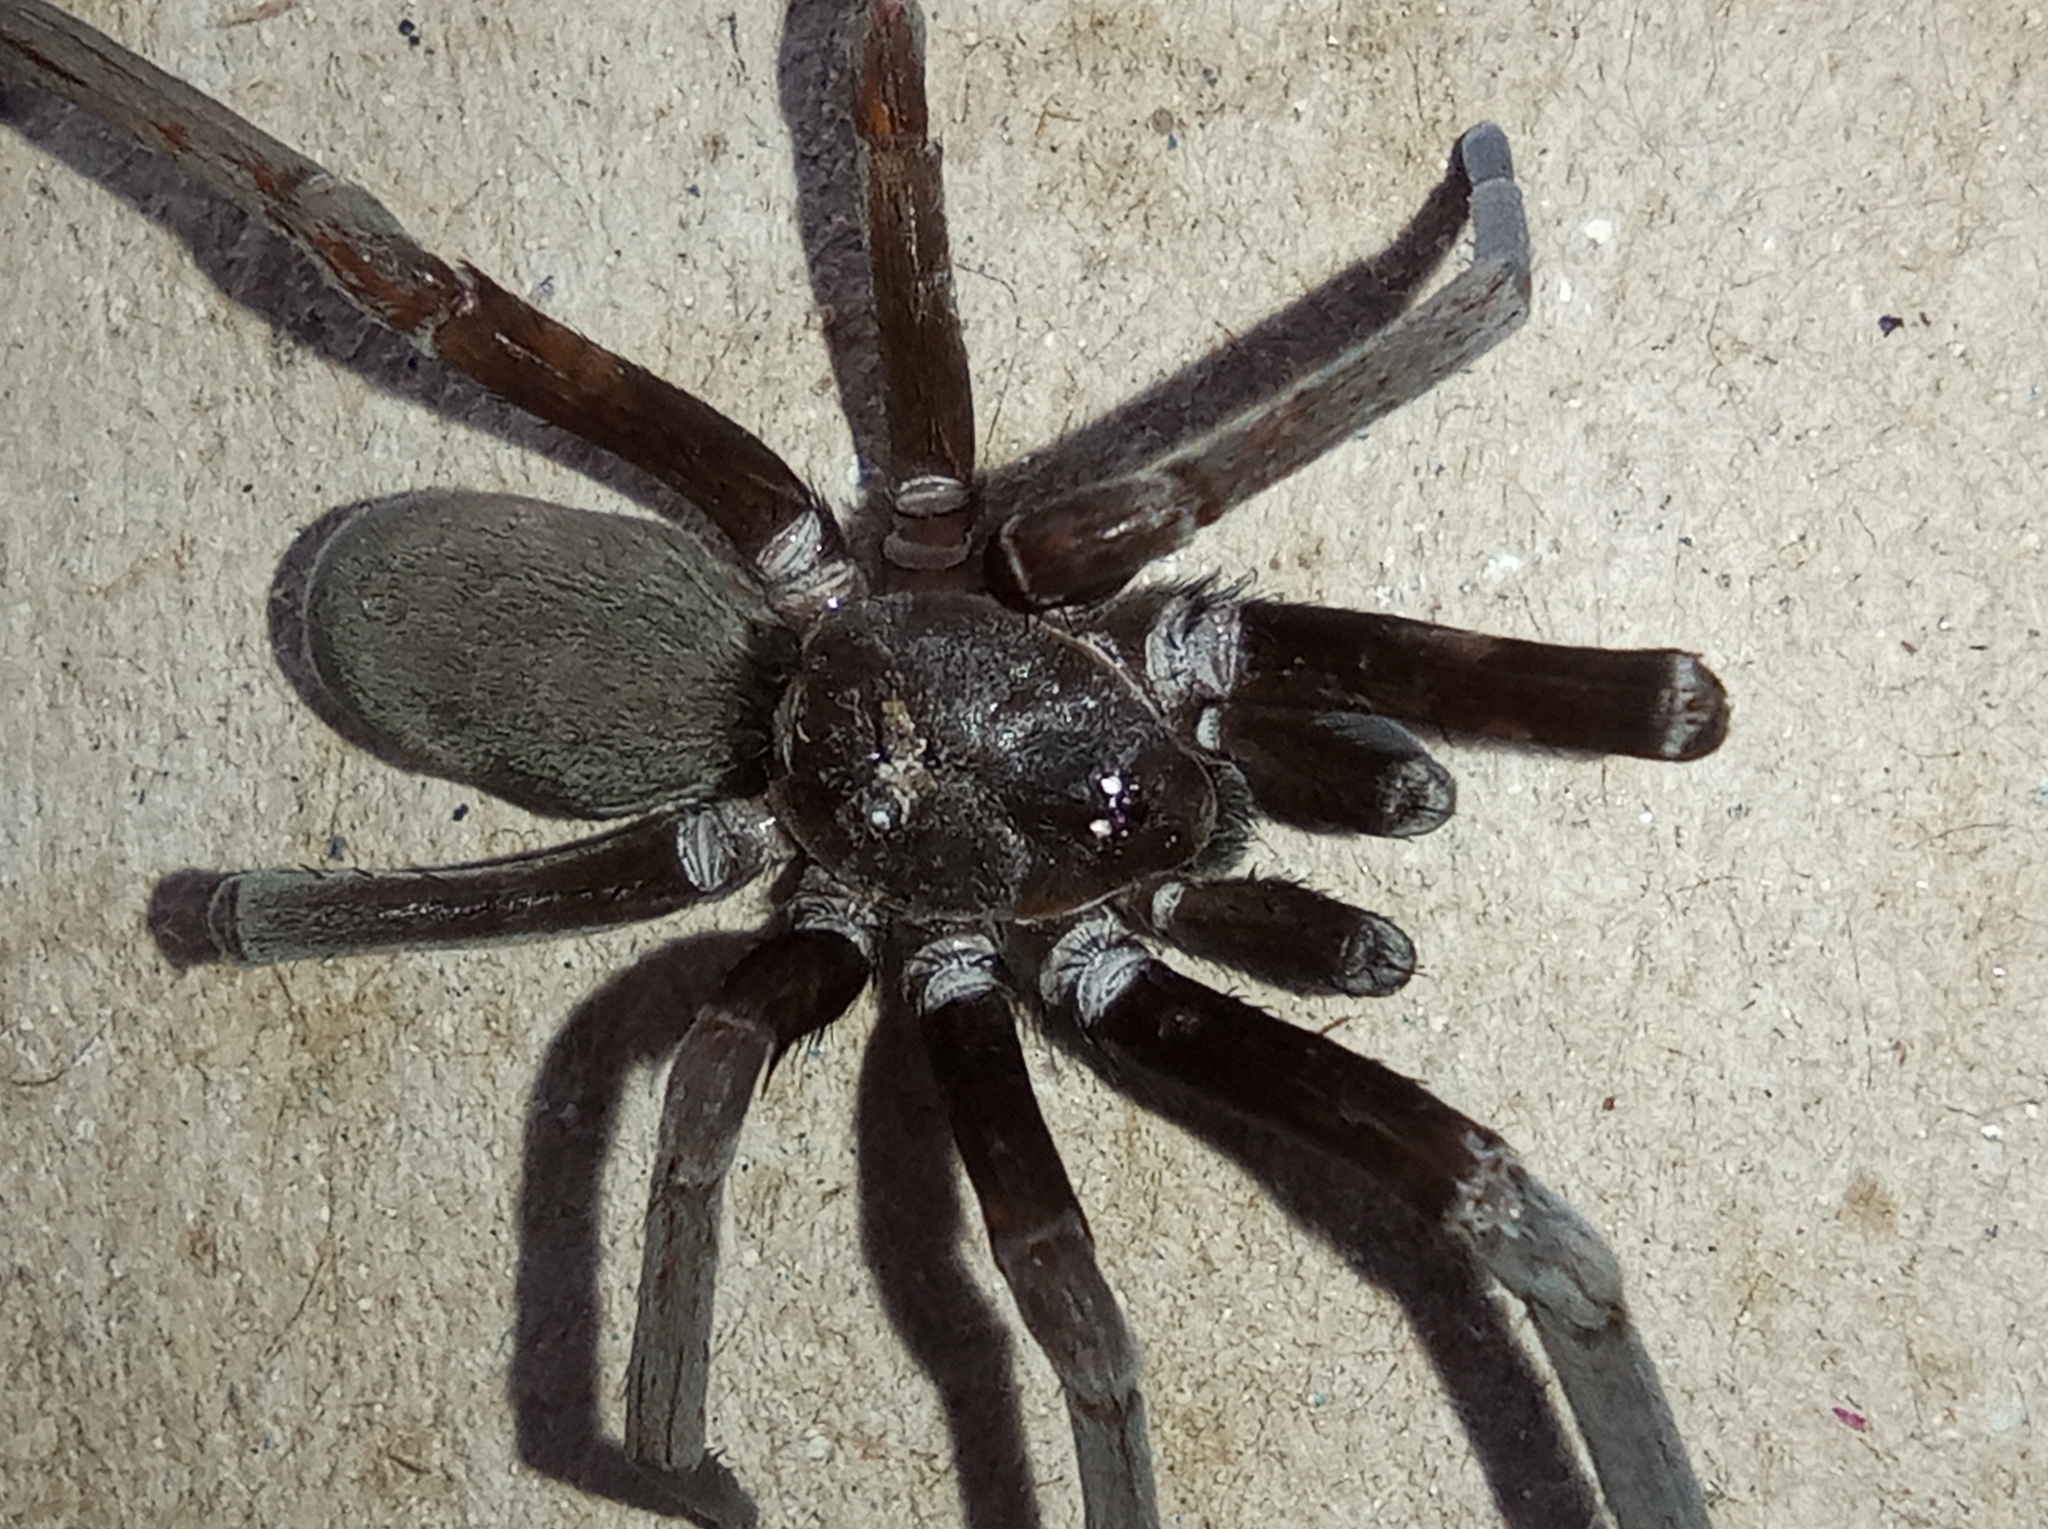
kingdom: Animalia
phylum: Arthropoda
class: Arachnida
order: Araneae
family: Filistatidae
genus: Kukulcania
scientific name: Kukulcania hibernalis
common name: Crevice weaver
